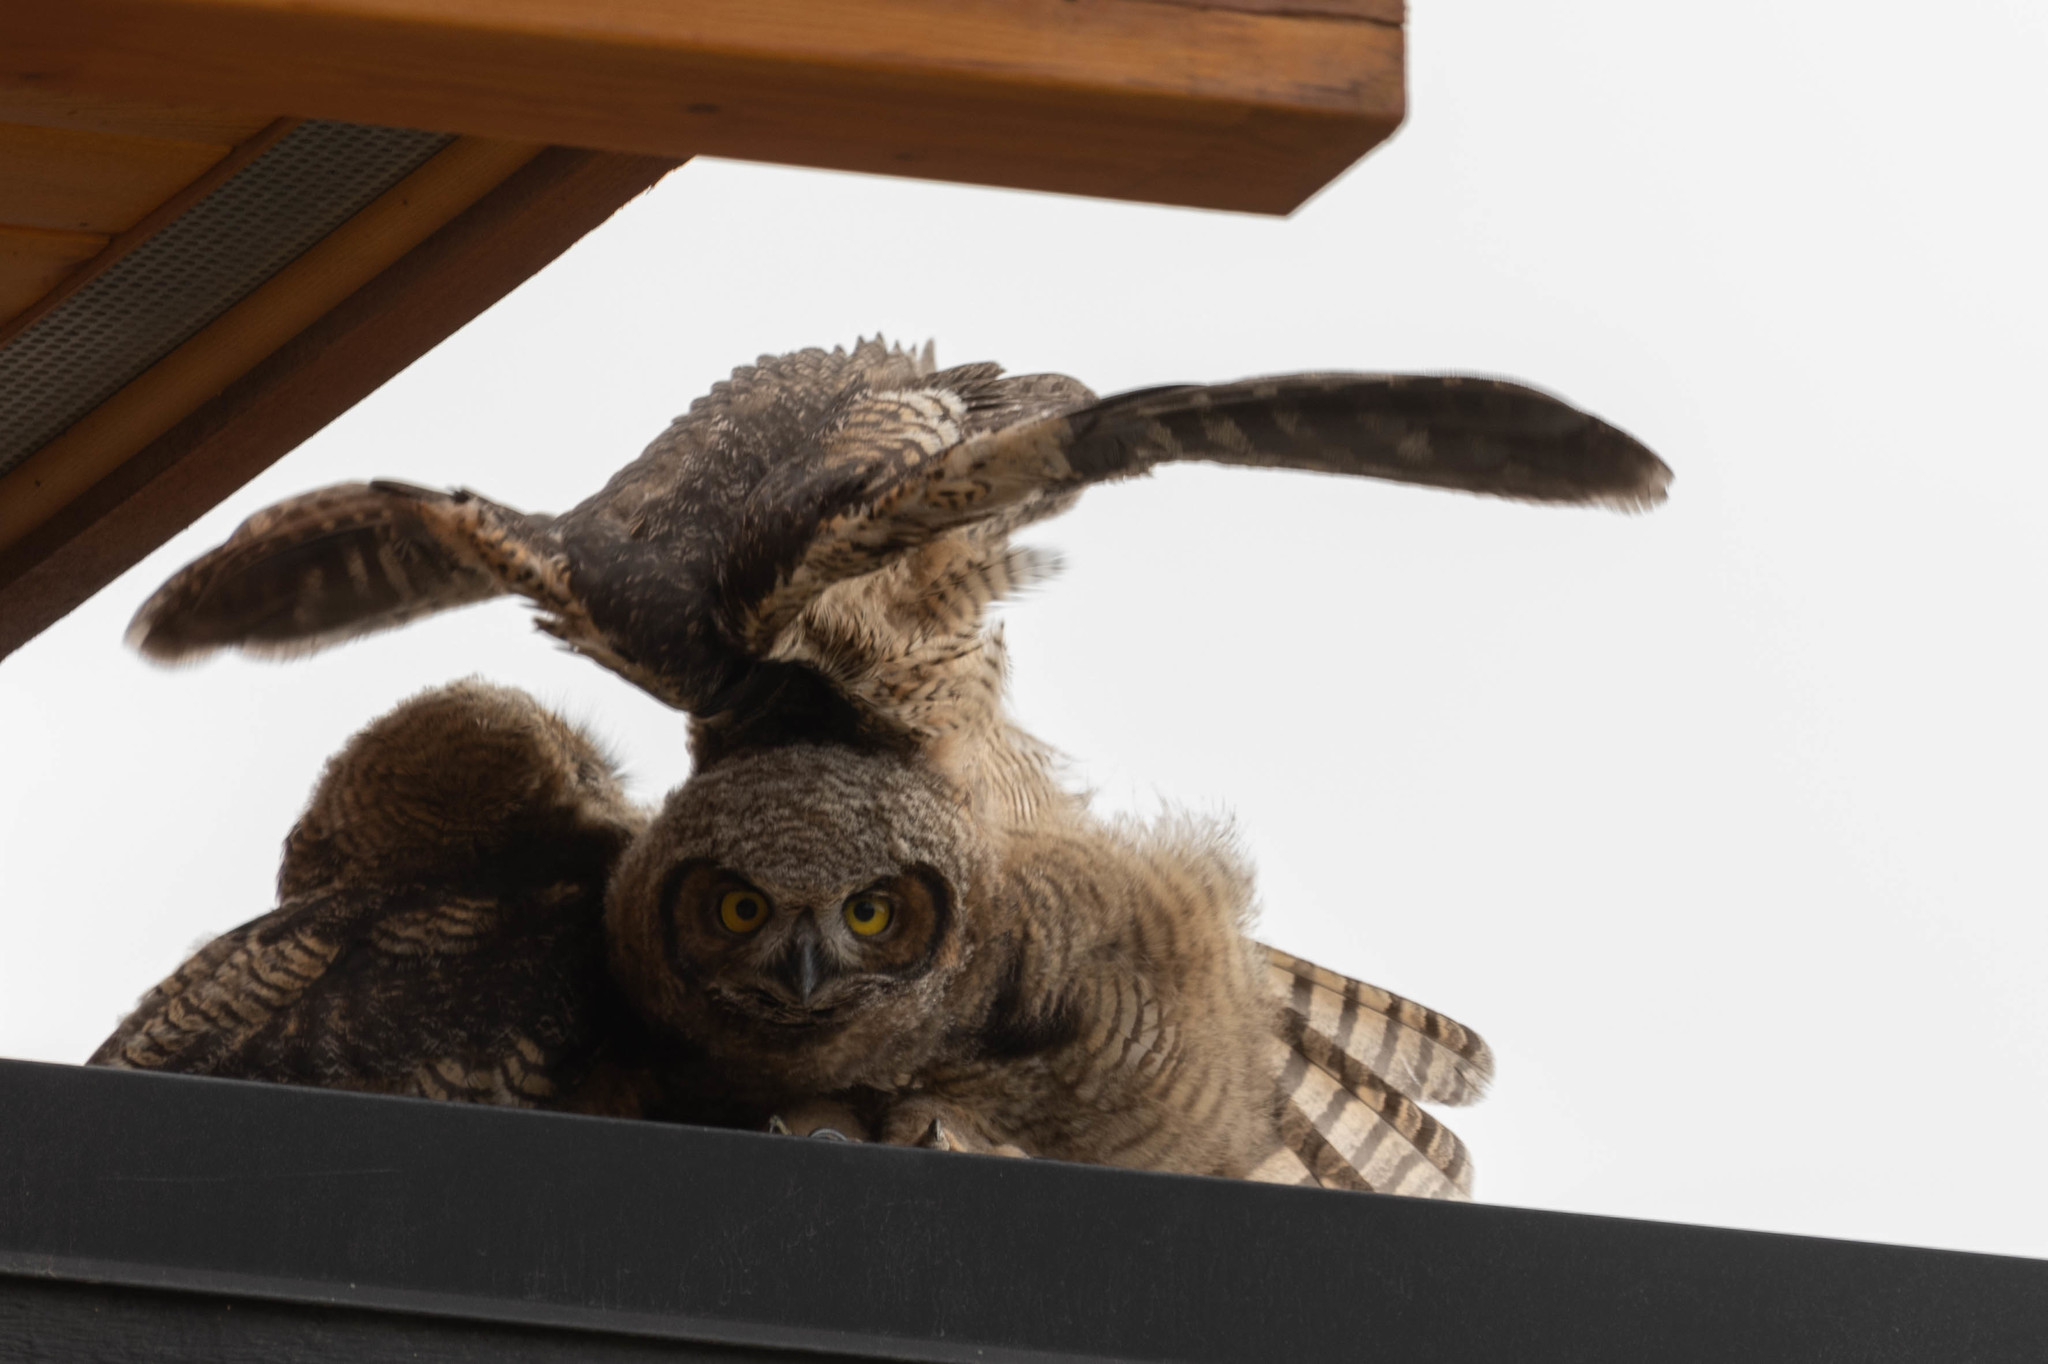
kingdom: Animalia
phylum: Chordata
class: Aves
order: Strigiformes
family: Strigidae
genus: Bubo
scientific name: Bubo virginianus
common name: Great horned owl
